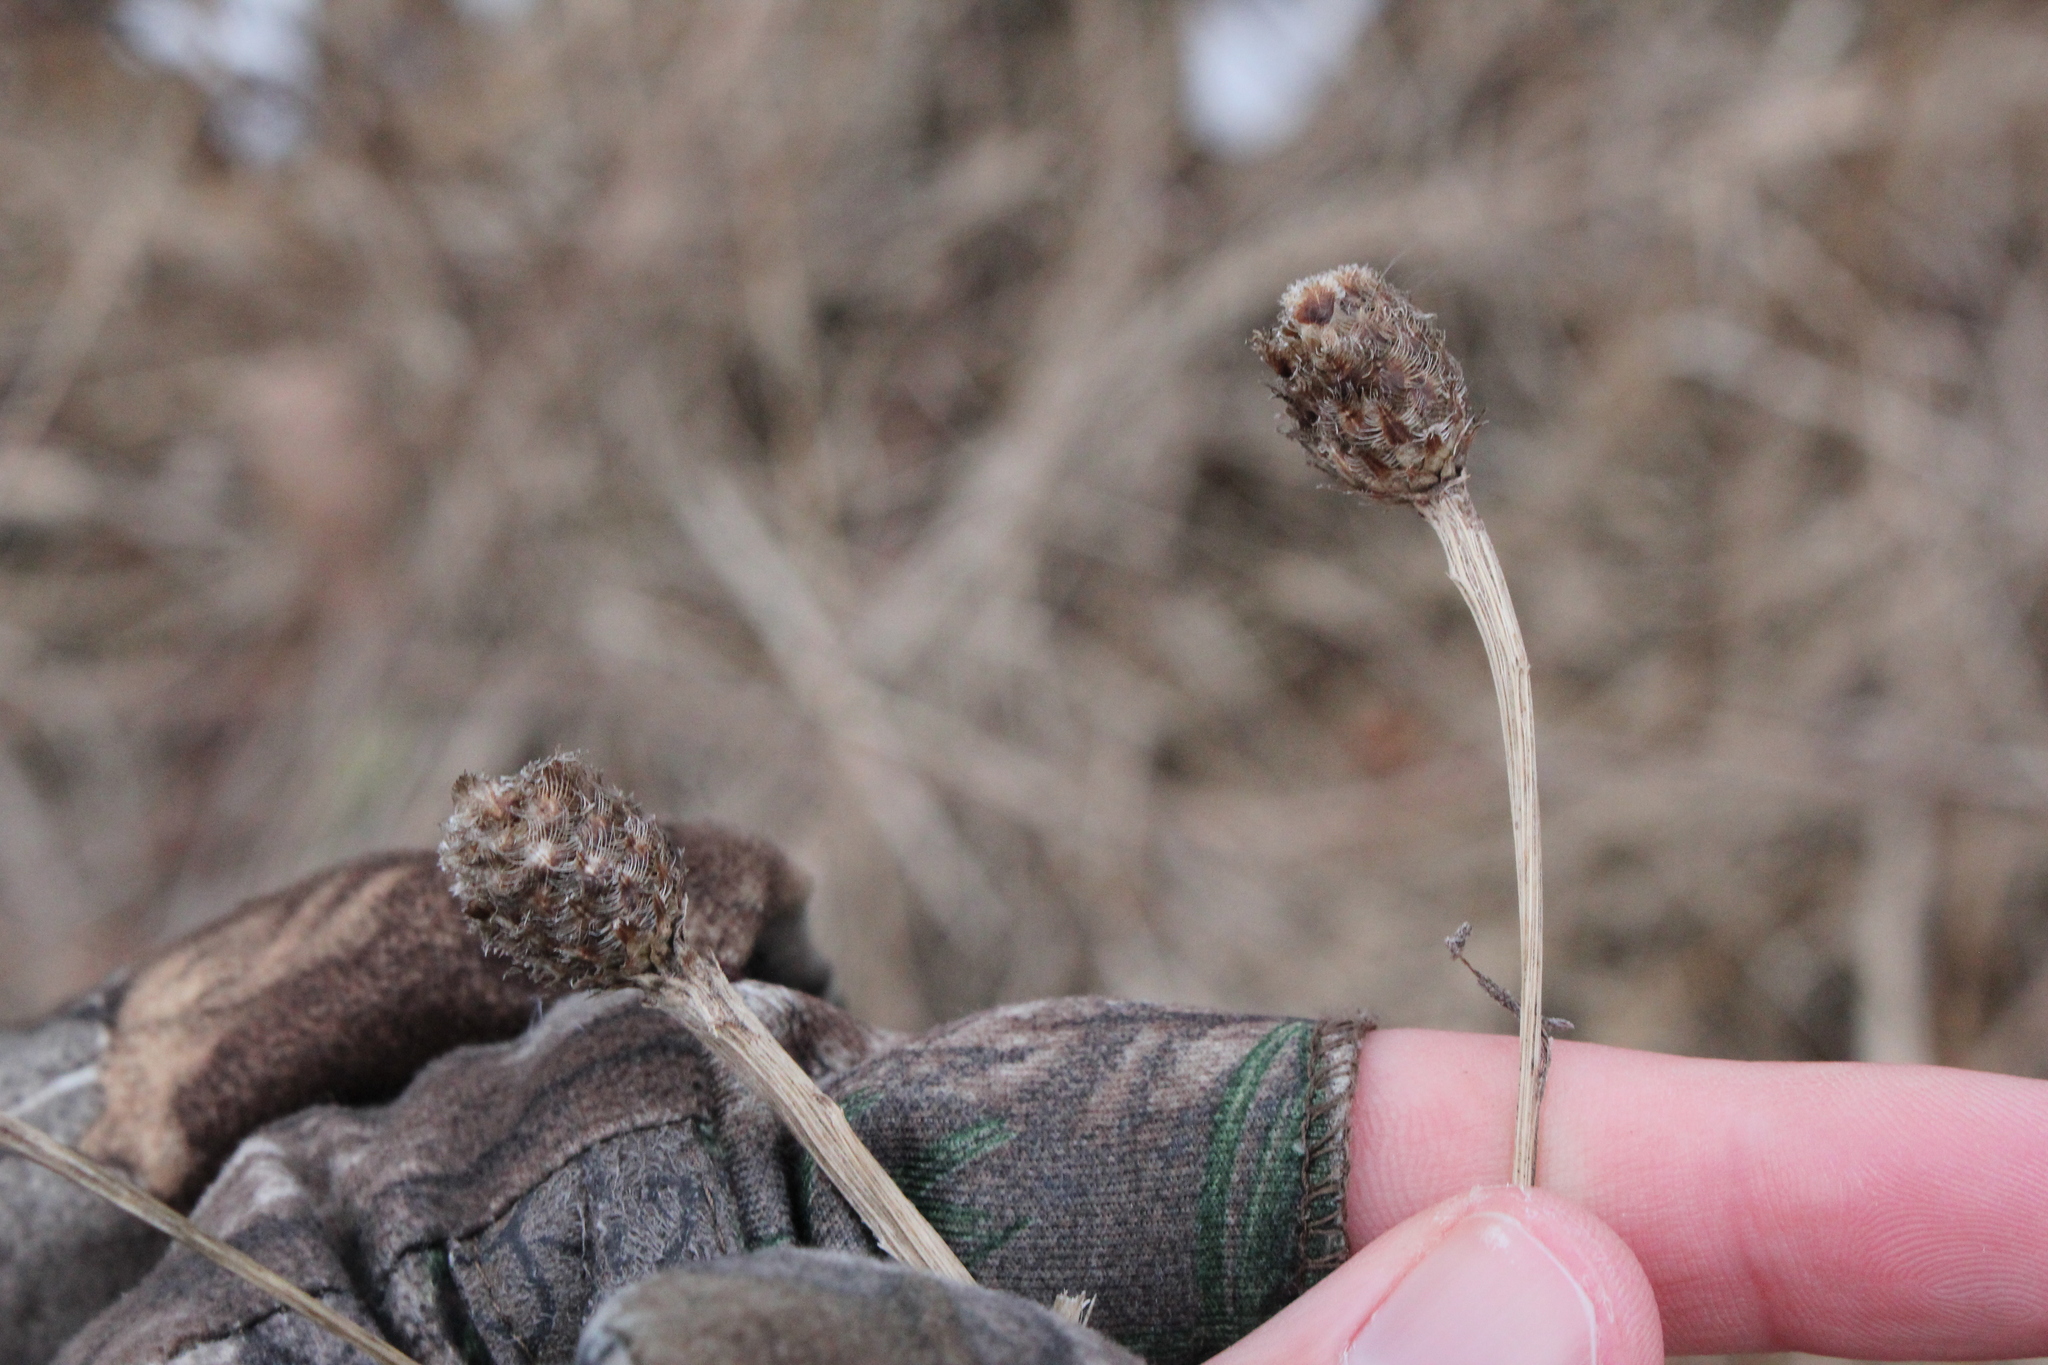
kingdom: Plantae
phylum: Tracheophyta
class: Magnoliopsida
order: Asterales
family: Asteraceae
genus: Centaurea
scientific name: Centaurea moncktonii
